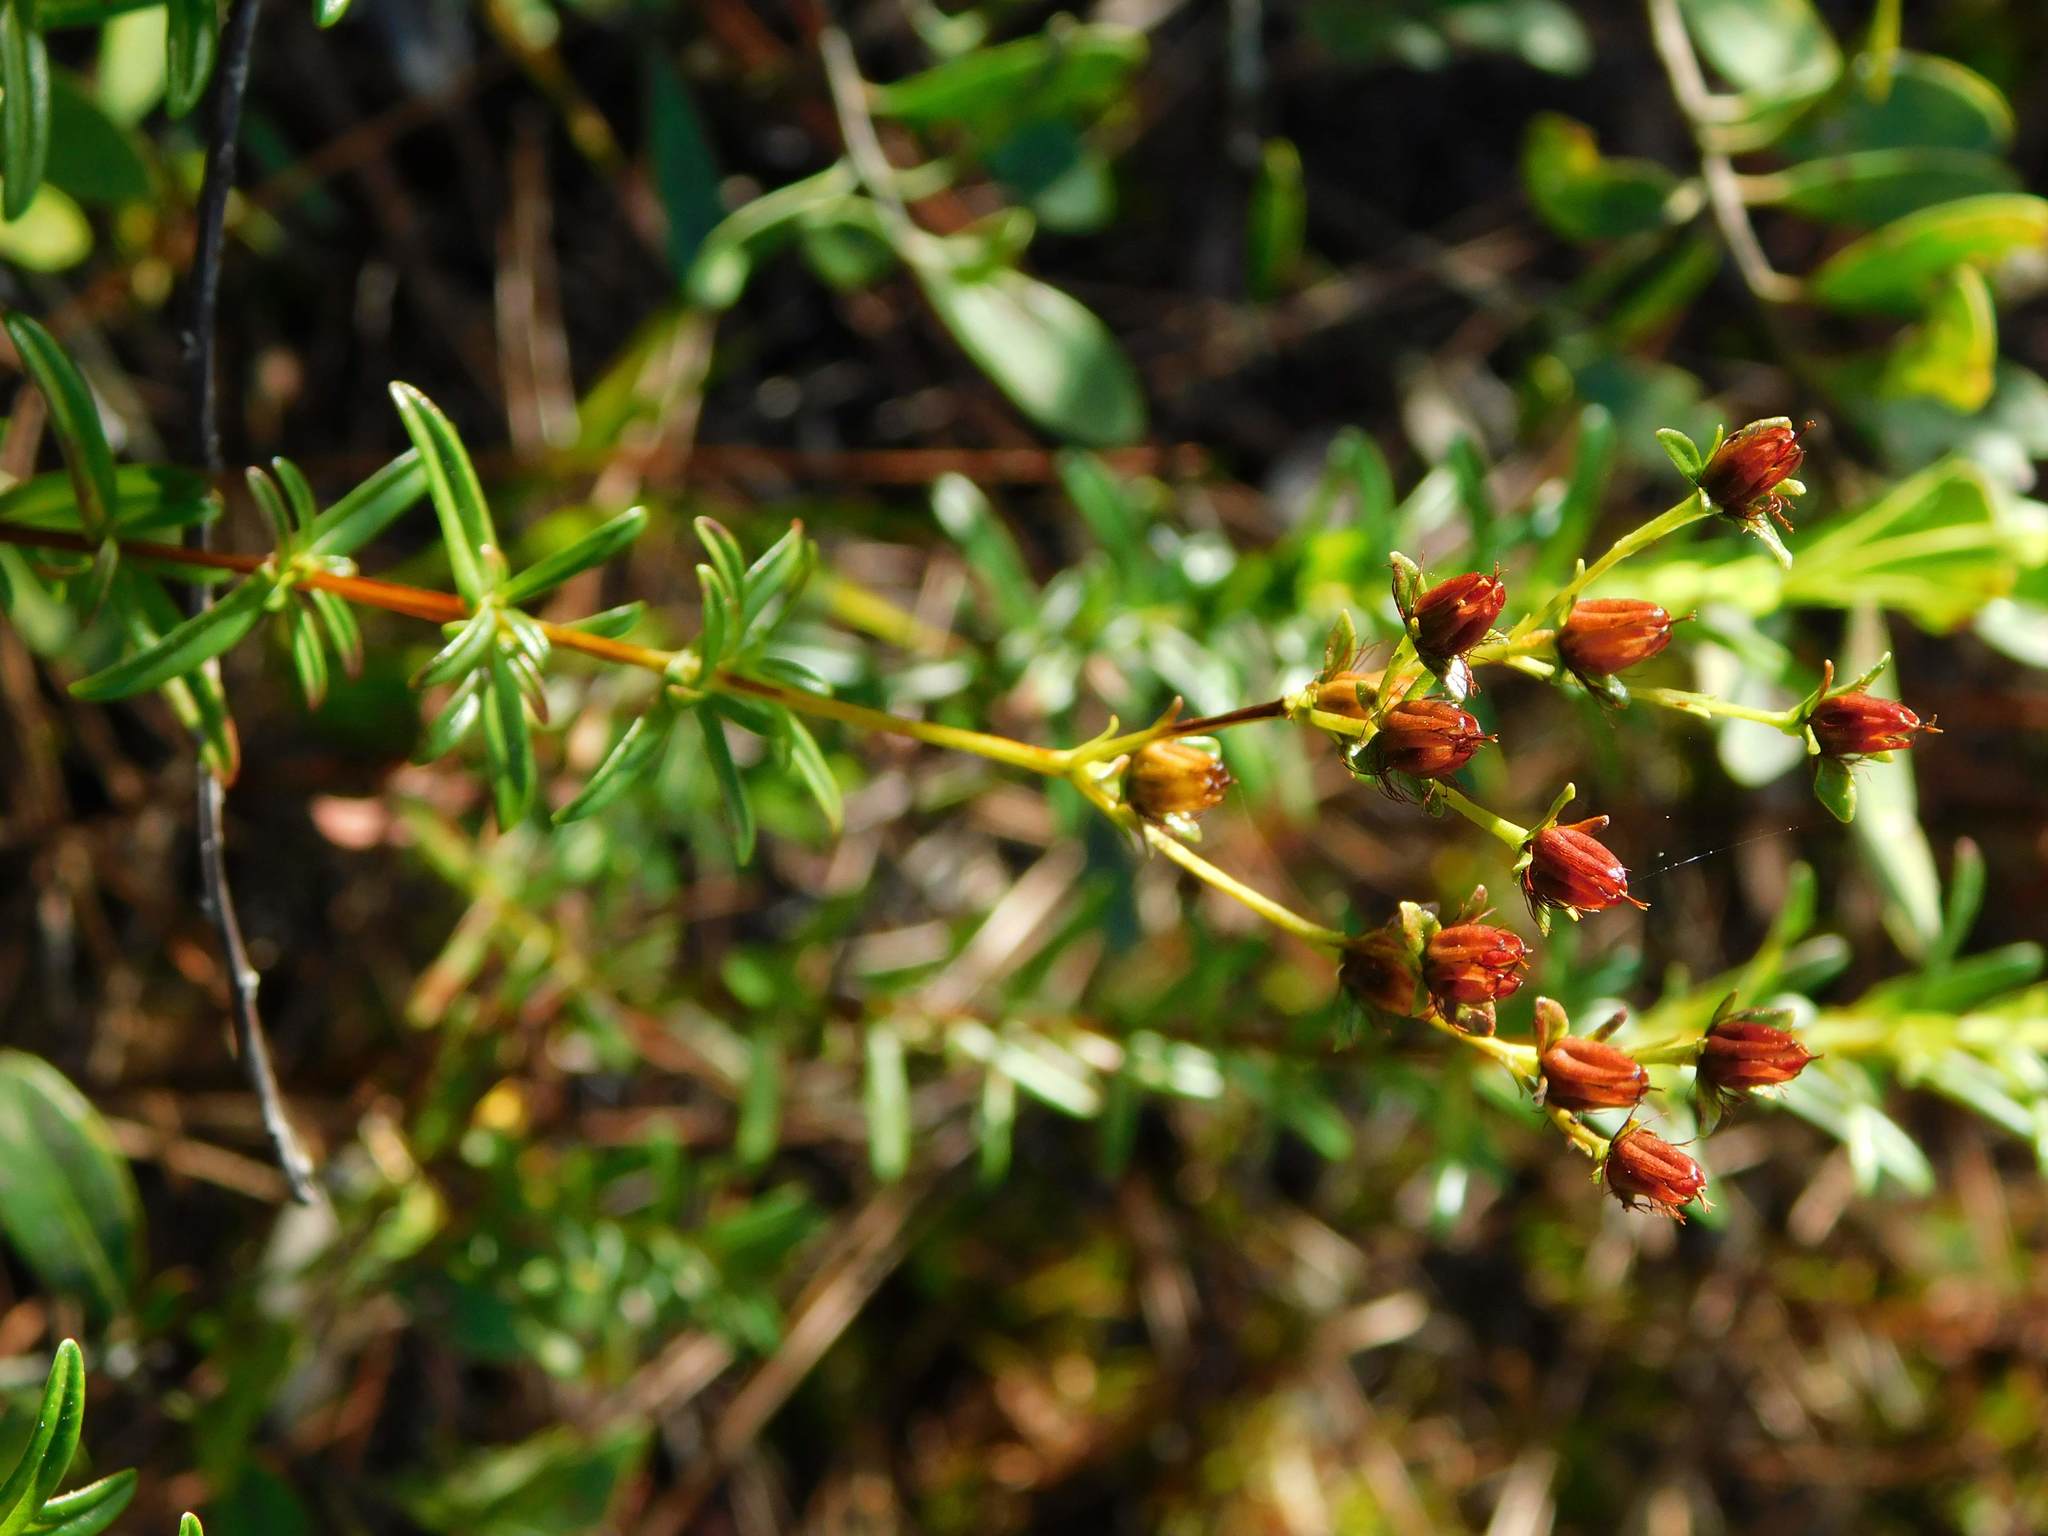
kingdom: Plantae
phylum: Tracheophyta
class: Magnoliopsida
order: Malpighiales
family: Hypericaceae
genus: Hypericum
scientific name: Hypericum cistifolium
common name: Round-pod st. john's-wort
